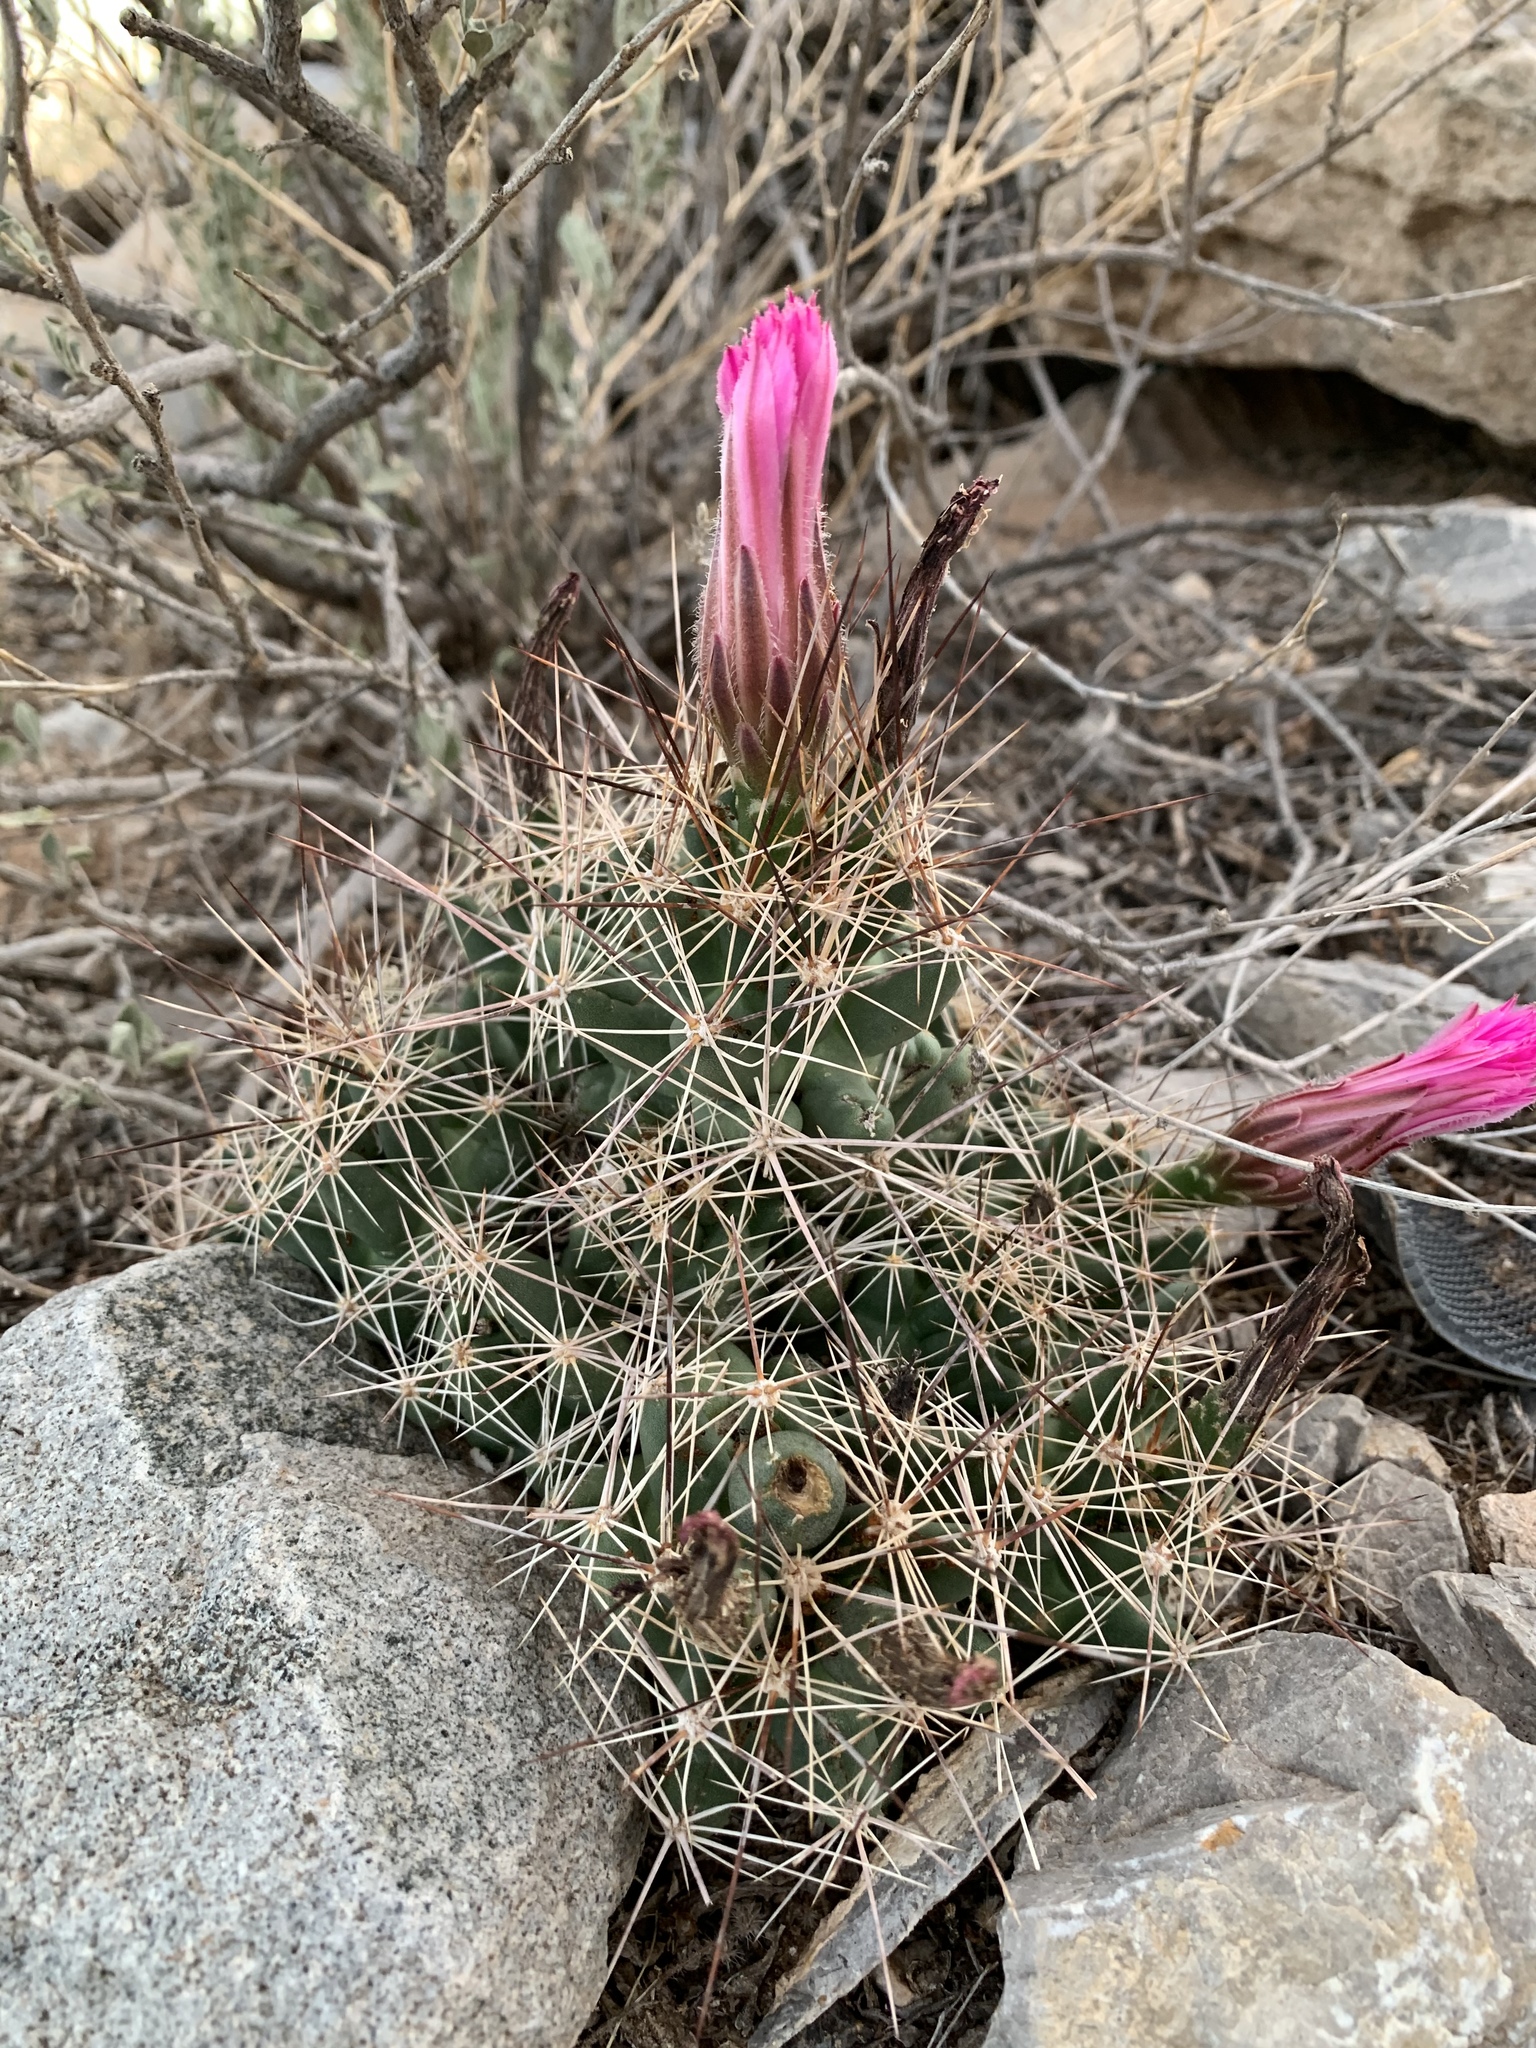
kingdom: Plantae
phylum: Tracheophyta
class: Magnoliopsida
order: Caryophyllales
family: Cactaceae
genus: Coryphantha
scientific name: Coryphantha macromeris
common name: Nipple beehive cactus
